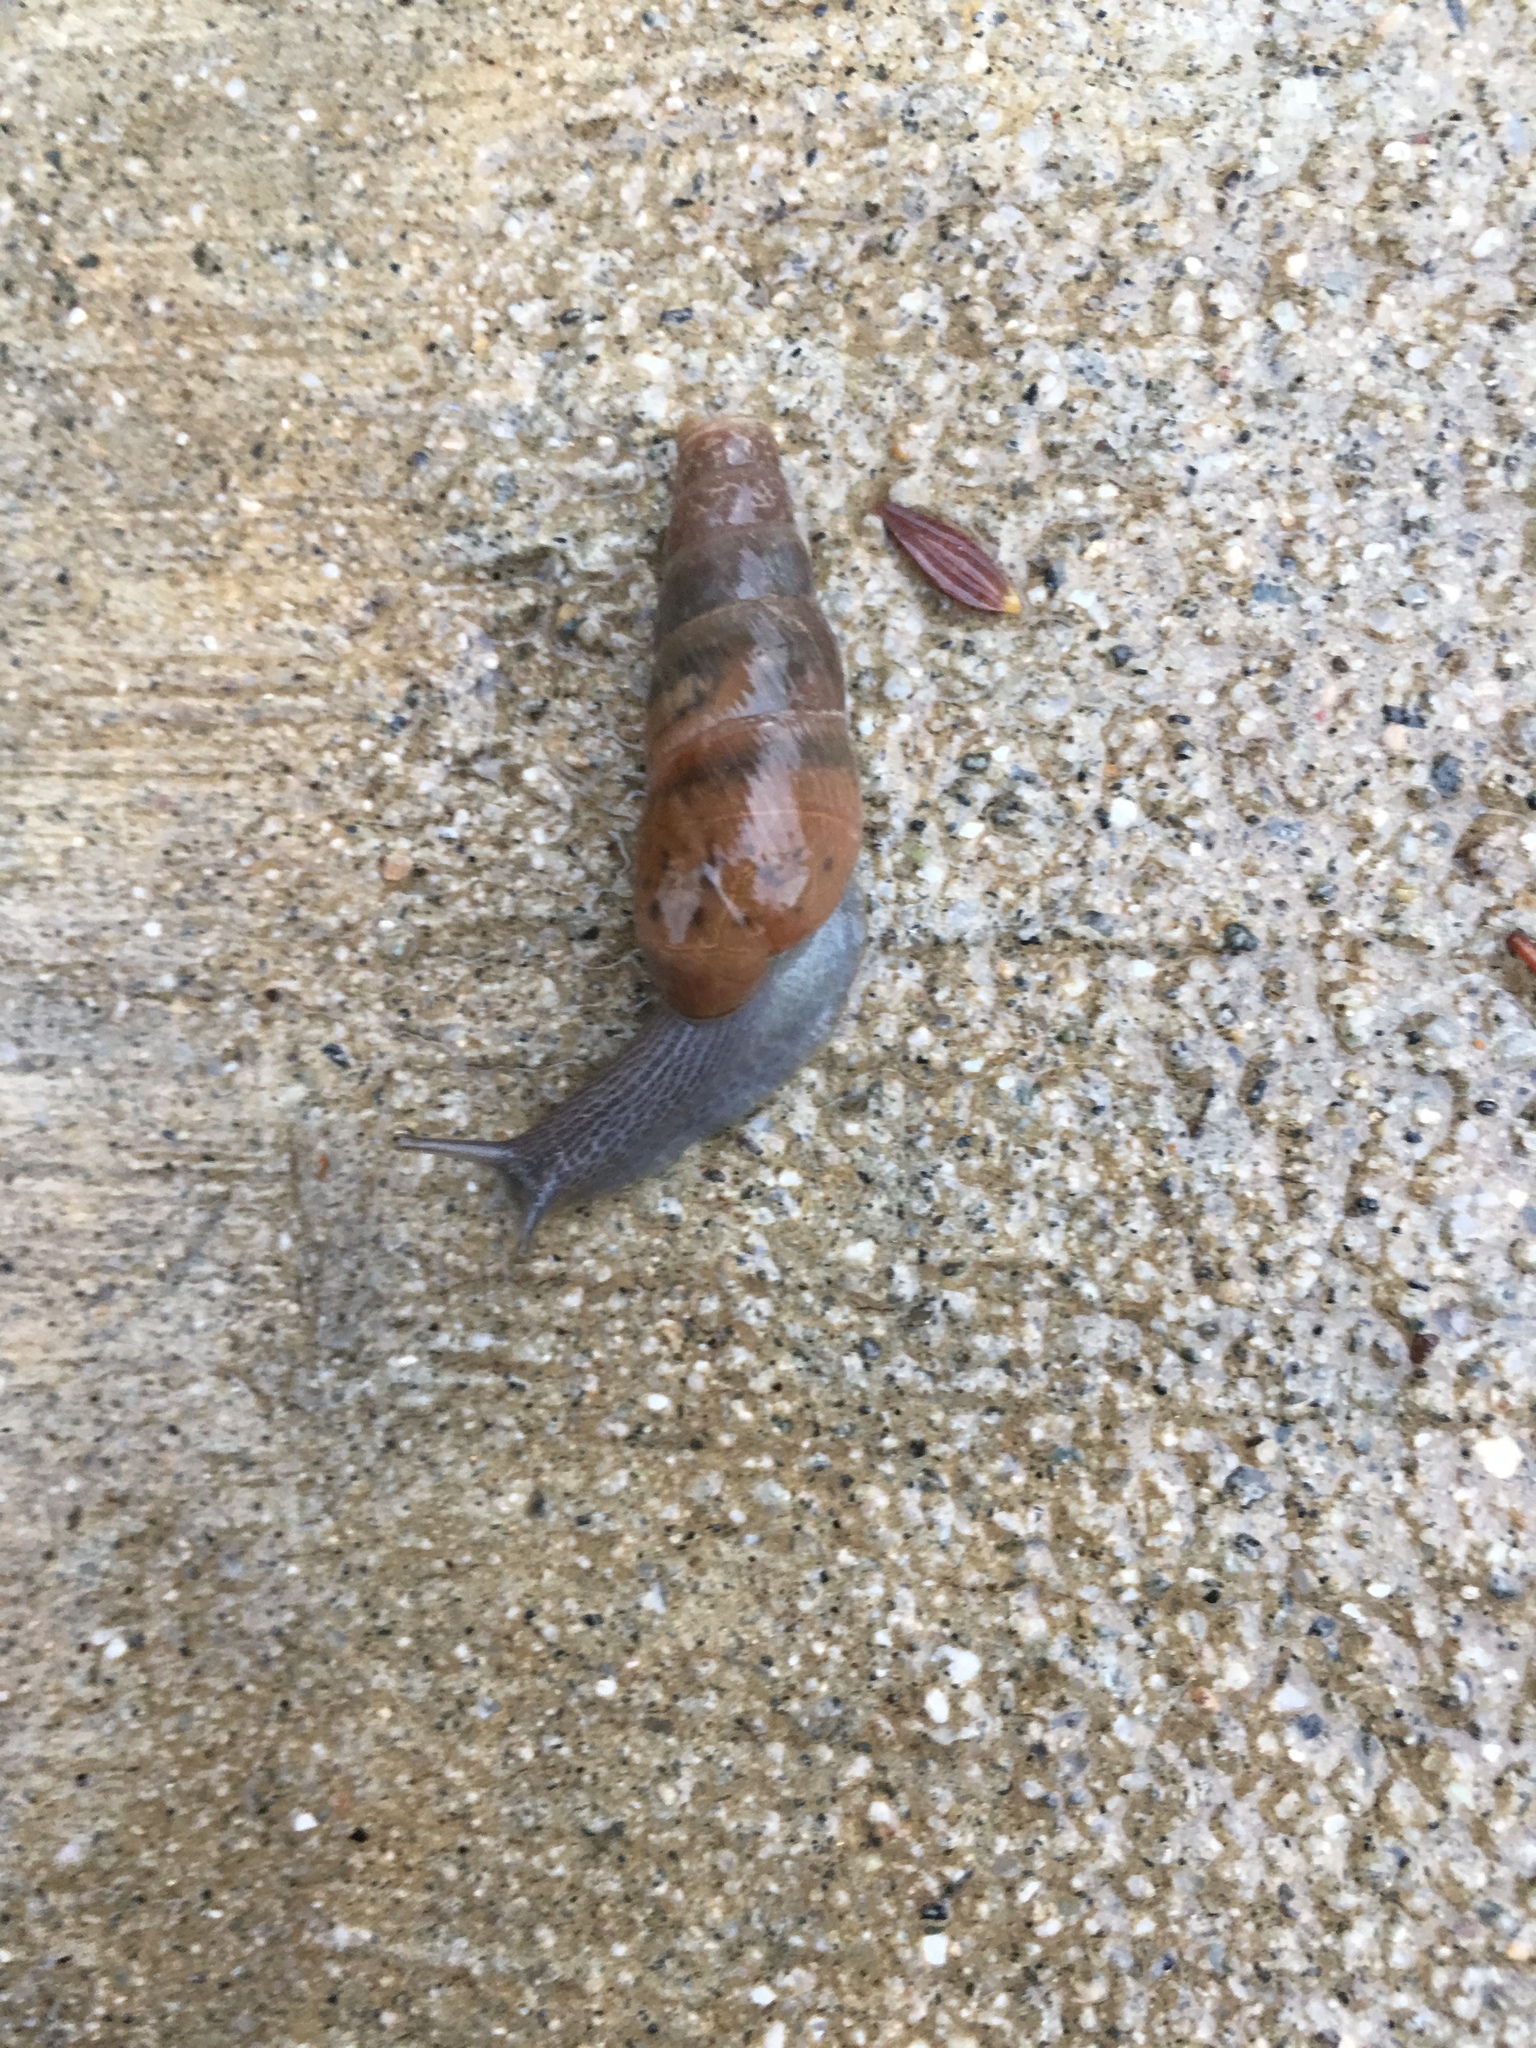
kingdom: Animalia
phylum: Mollusca
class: Gastropoda
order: Stylommatophora
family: Achatinidae
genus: Rumina
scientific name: Rumina decollata
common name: Decollate snail
